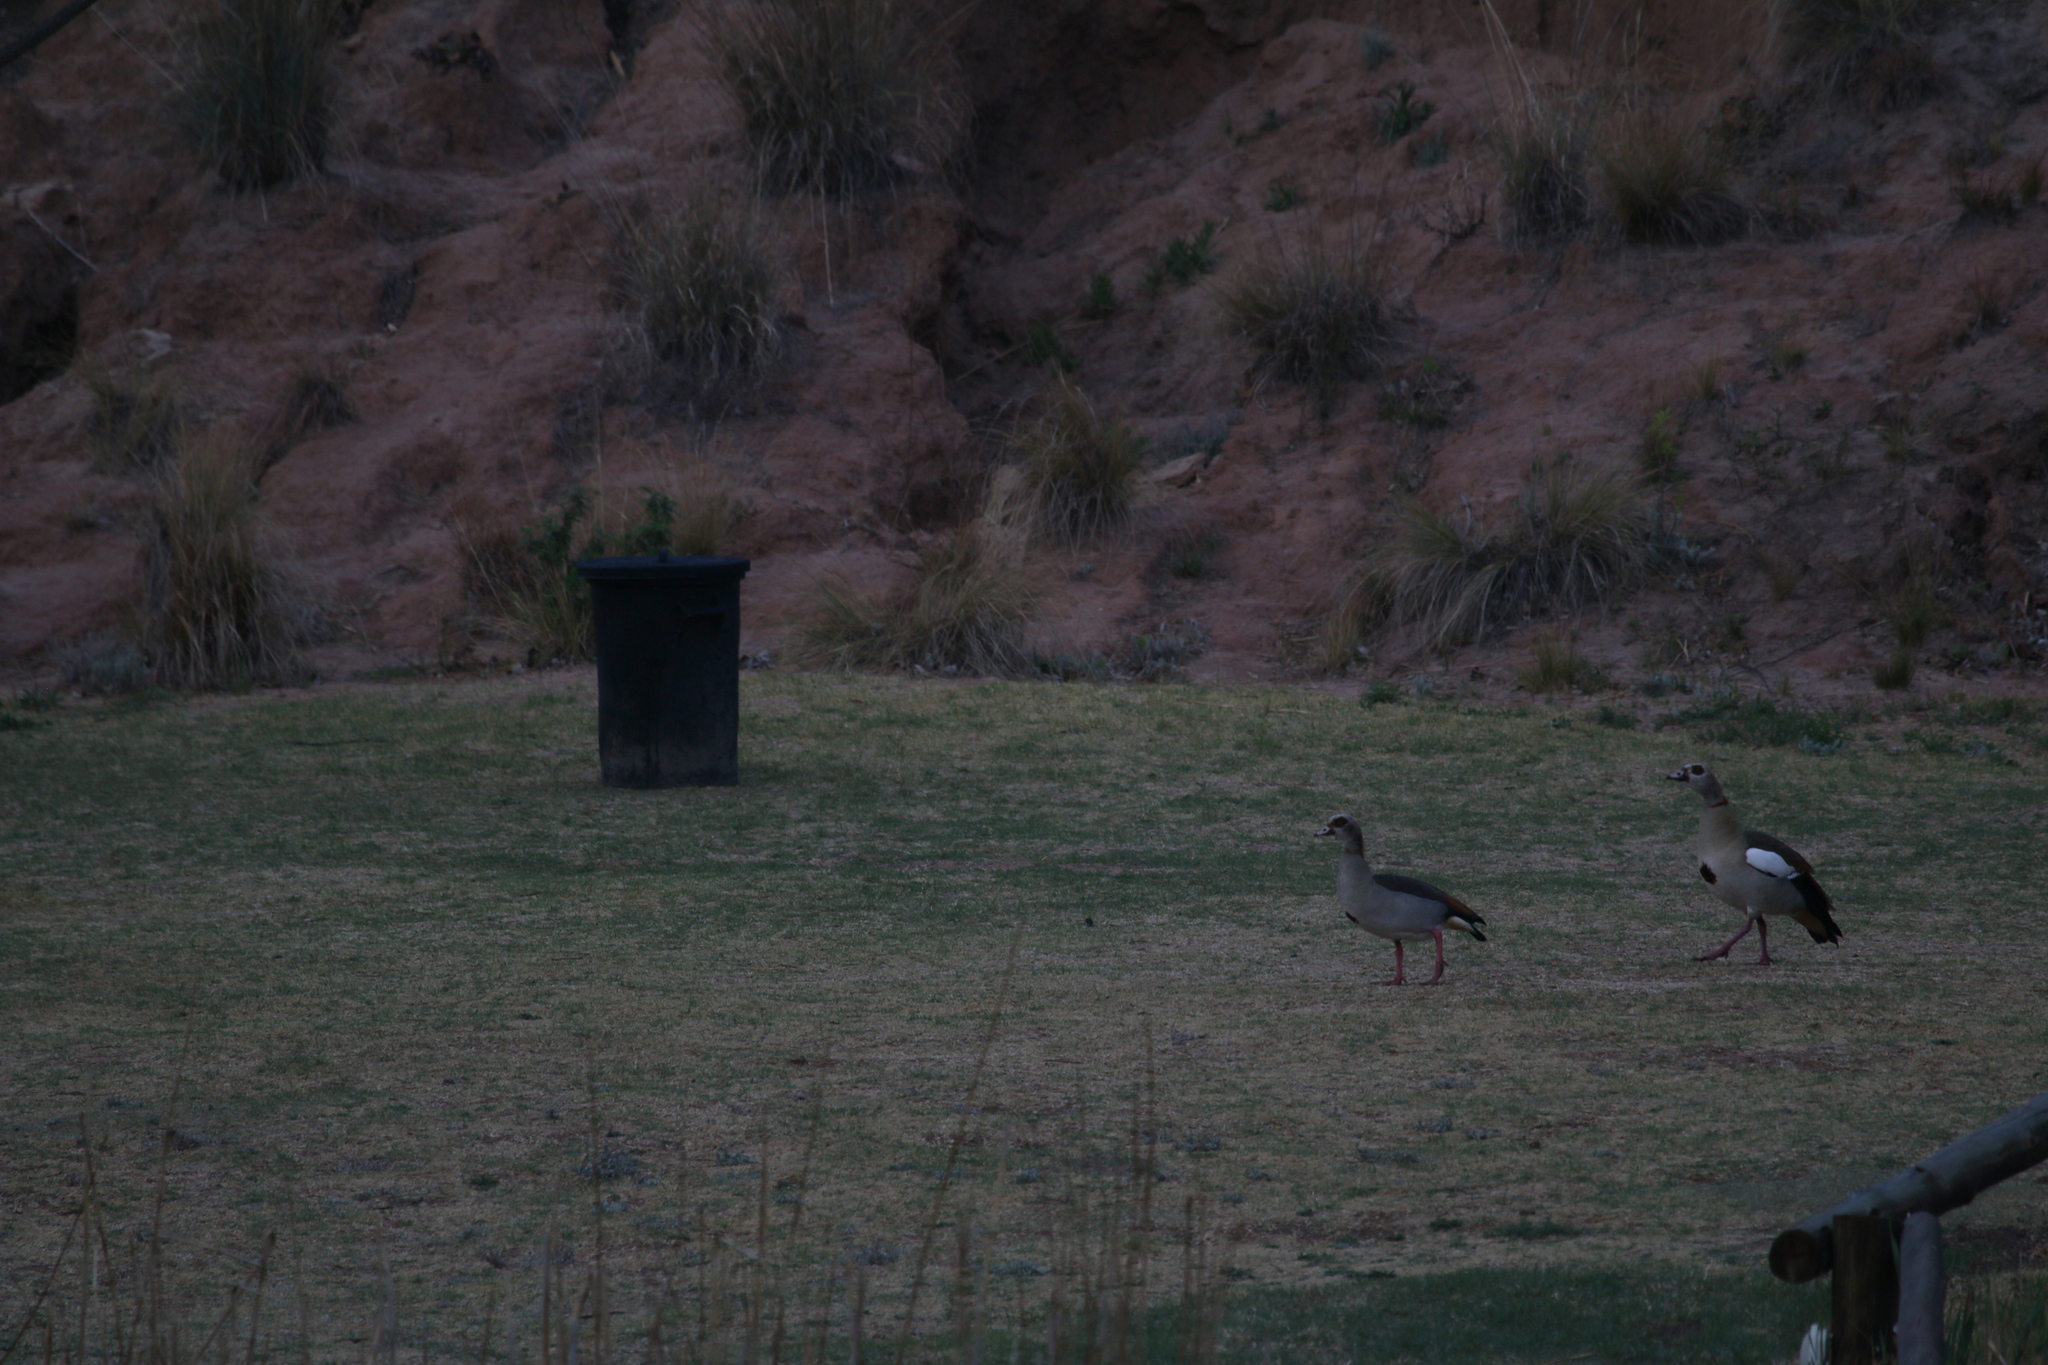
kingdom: Animalia
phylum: Chordata
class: Aves
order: Anseriformes
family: Anatidae
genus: Alopochen
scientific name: Alopochen aegyptiaca
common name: Egyptian goose
